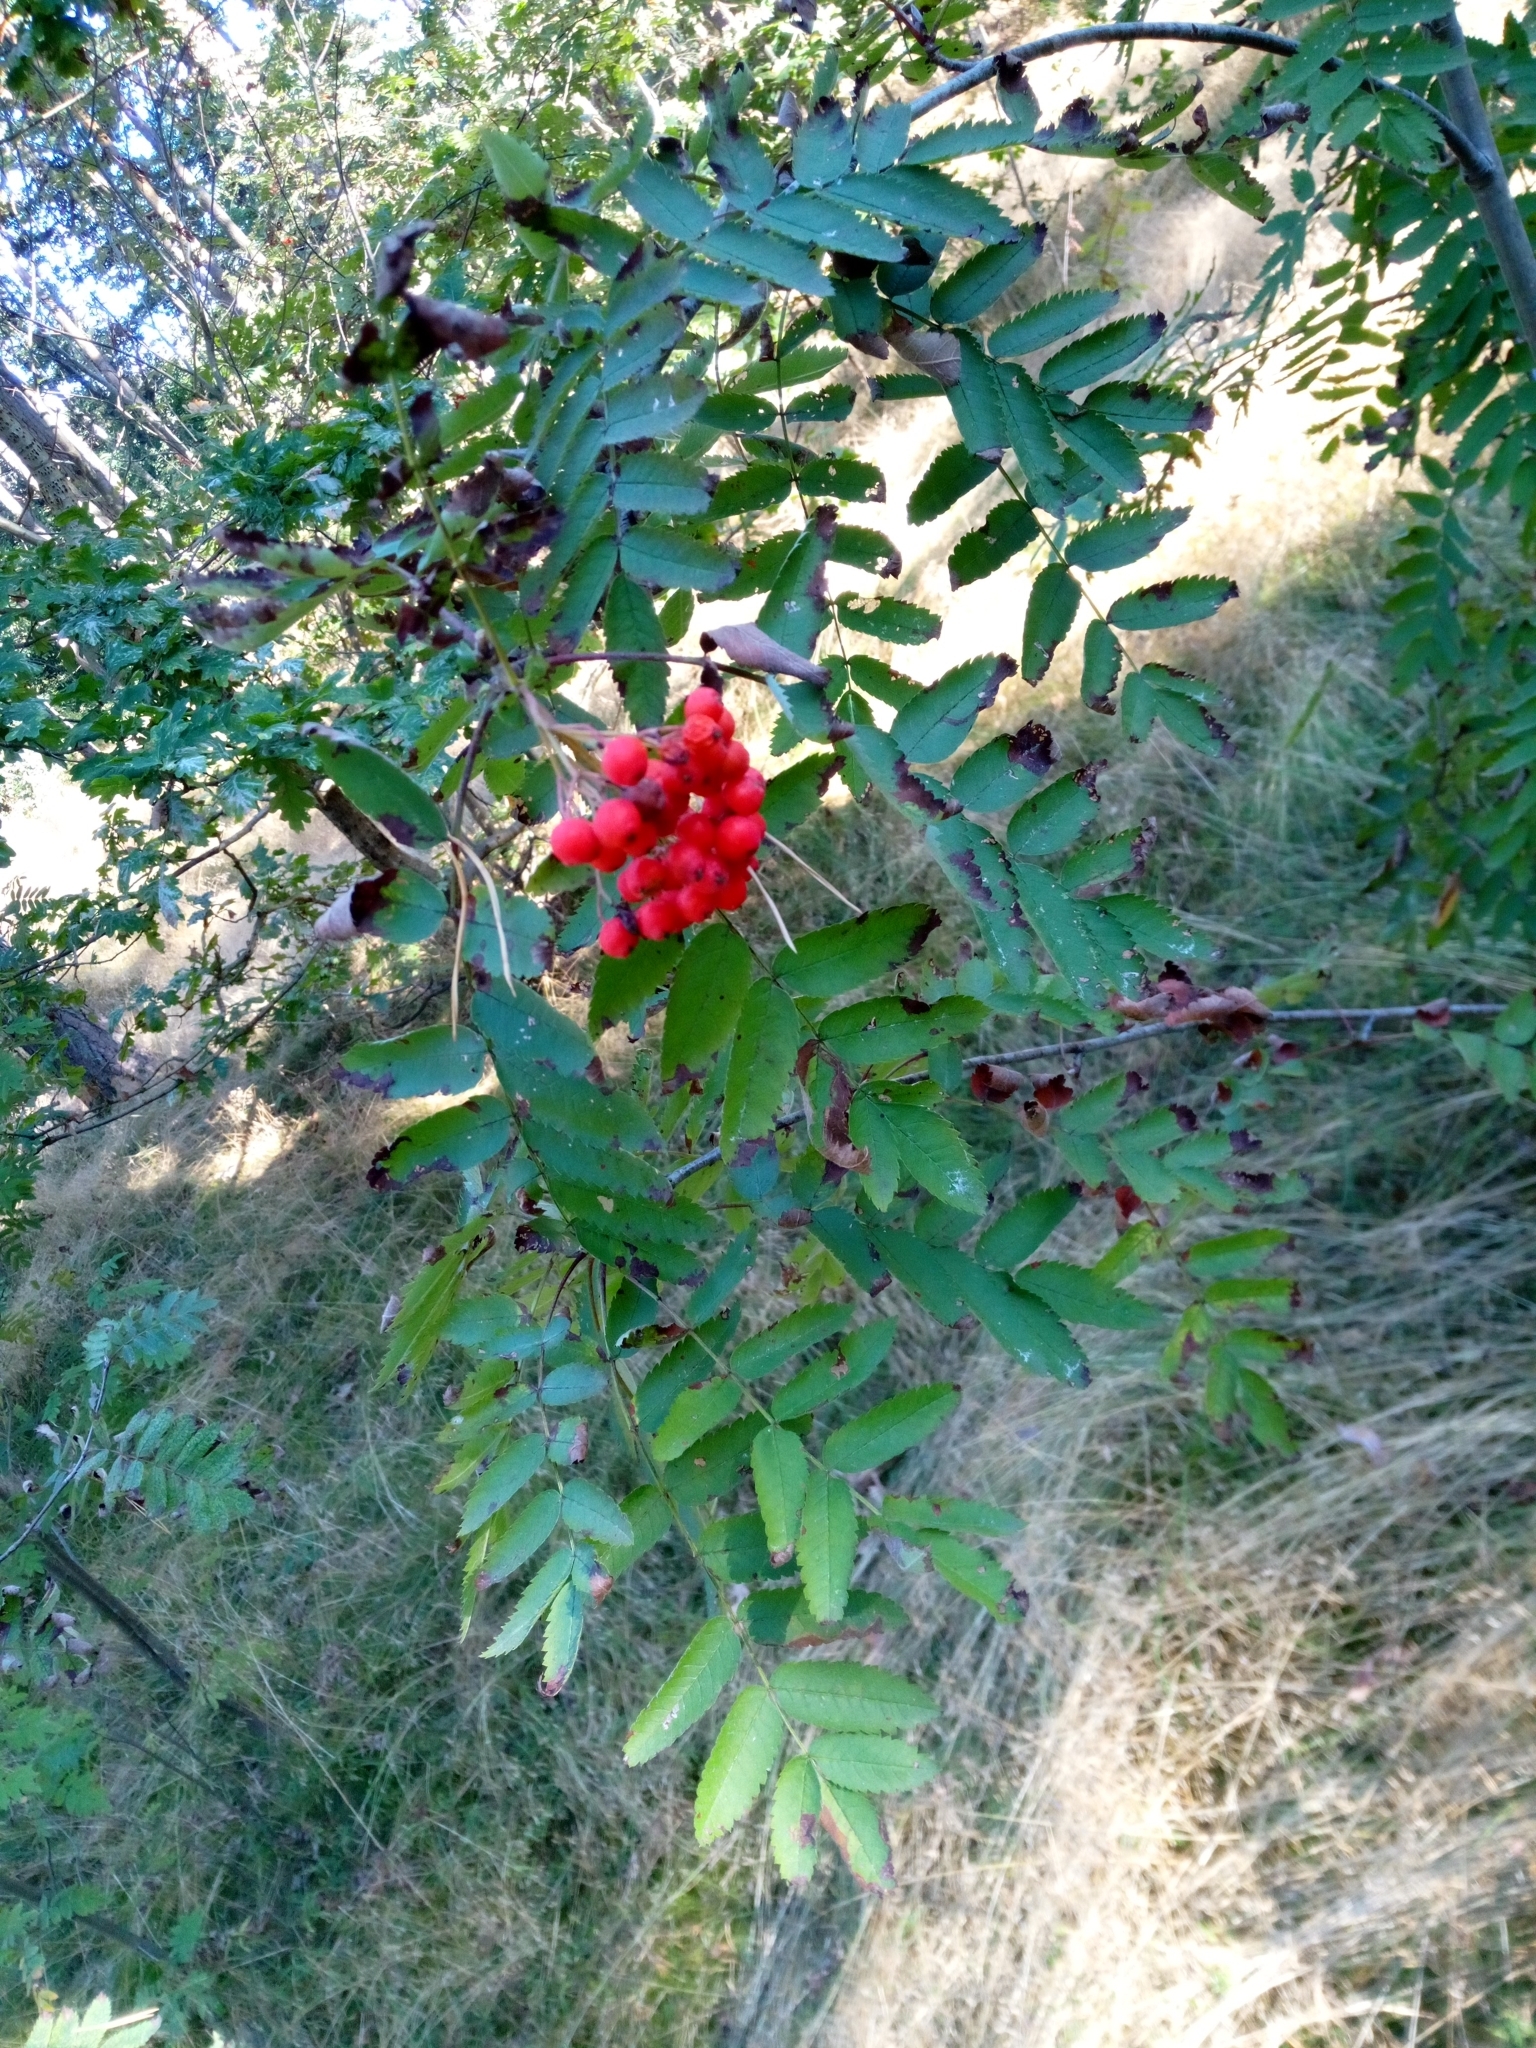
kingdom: Plantae
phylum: Tracheophyta
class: Magnoliopsida
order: Rosales
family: Rosaceae
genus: Sorbus
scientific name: Sorbus aucuparia
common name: Rowan
